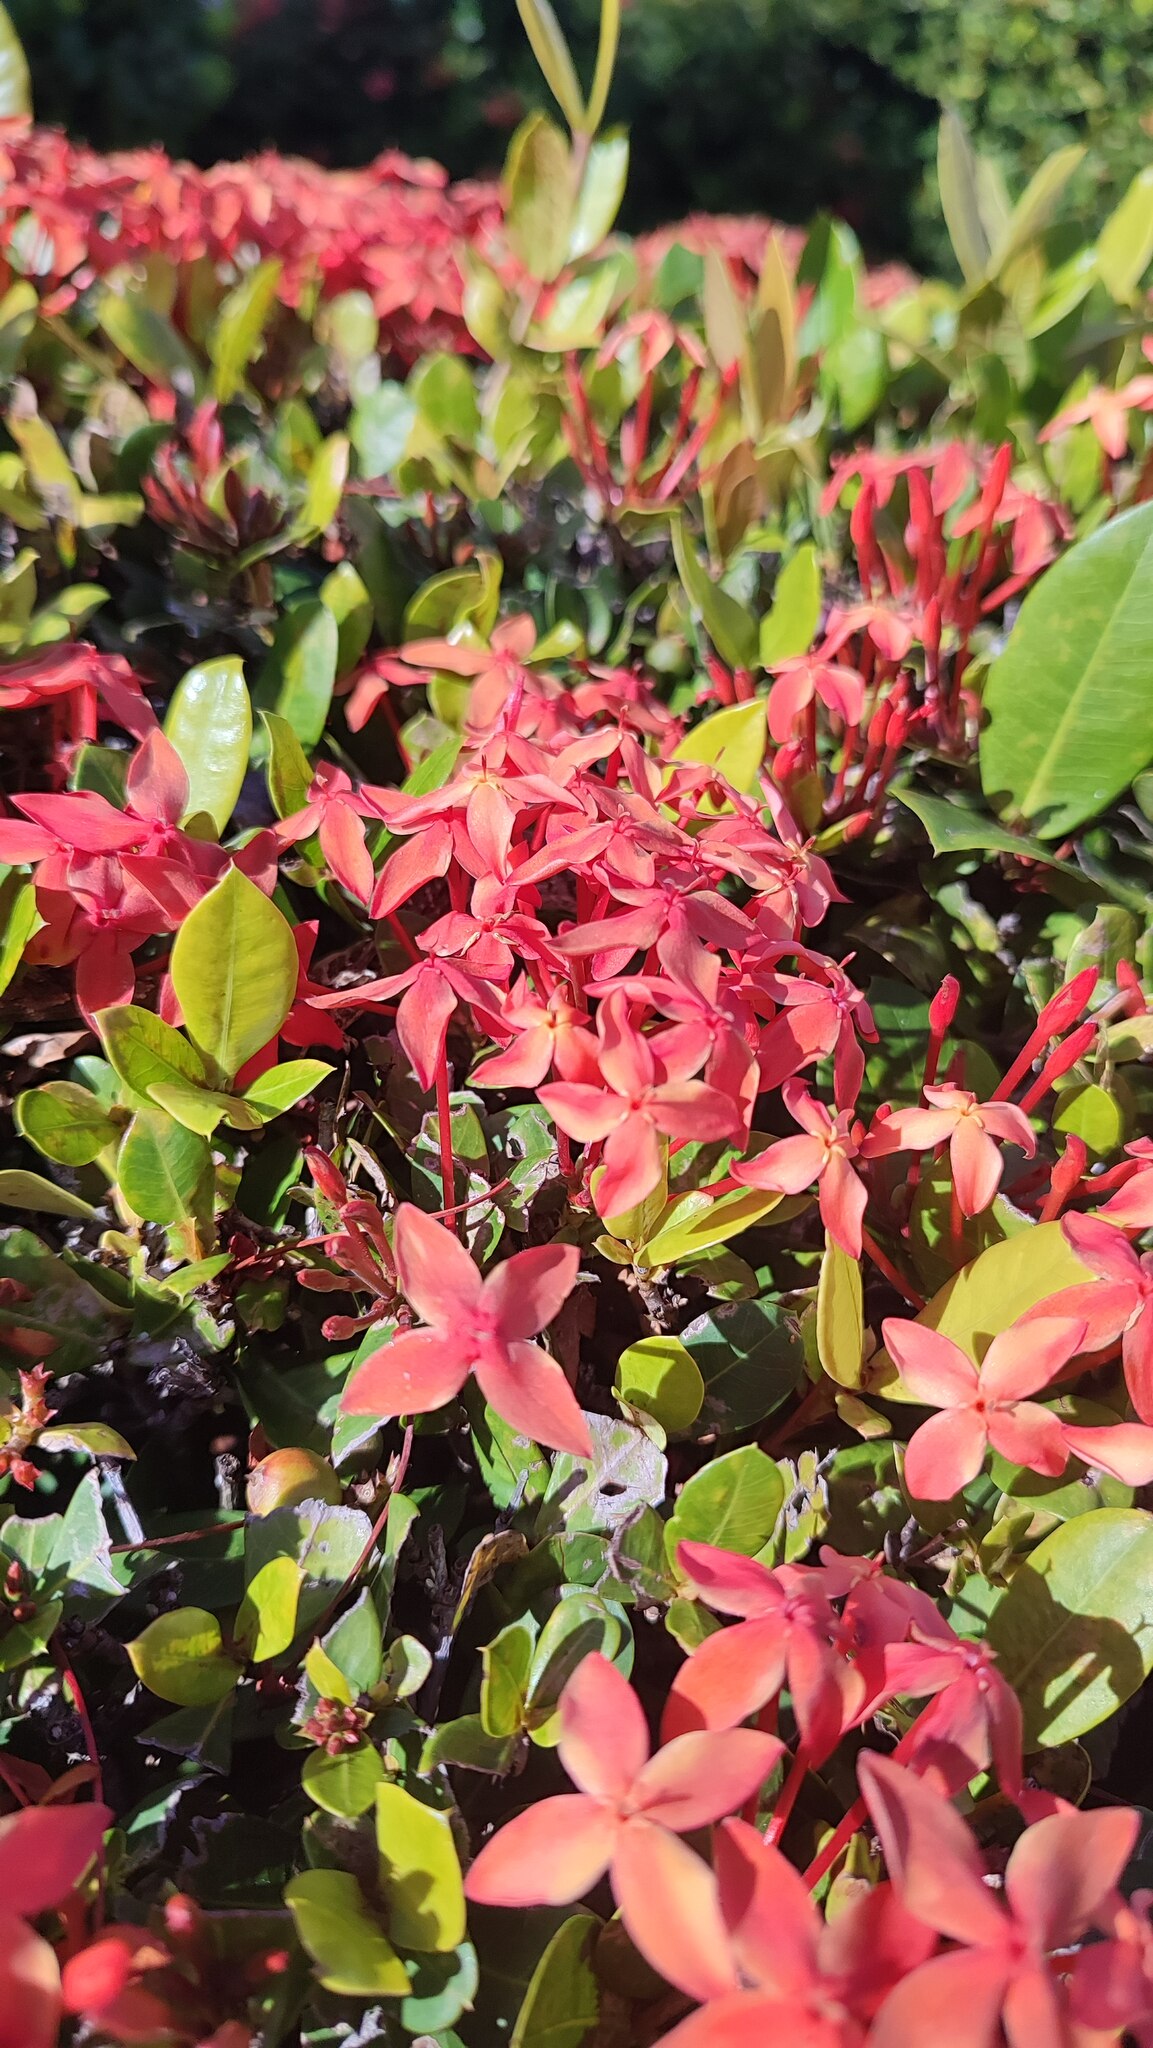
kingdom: Plantae
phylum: Tracheophyta
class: Magnoliopsida
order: Gentianales
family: Rubiaceae
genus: Ixora
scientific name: Ixora coccinea
